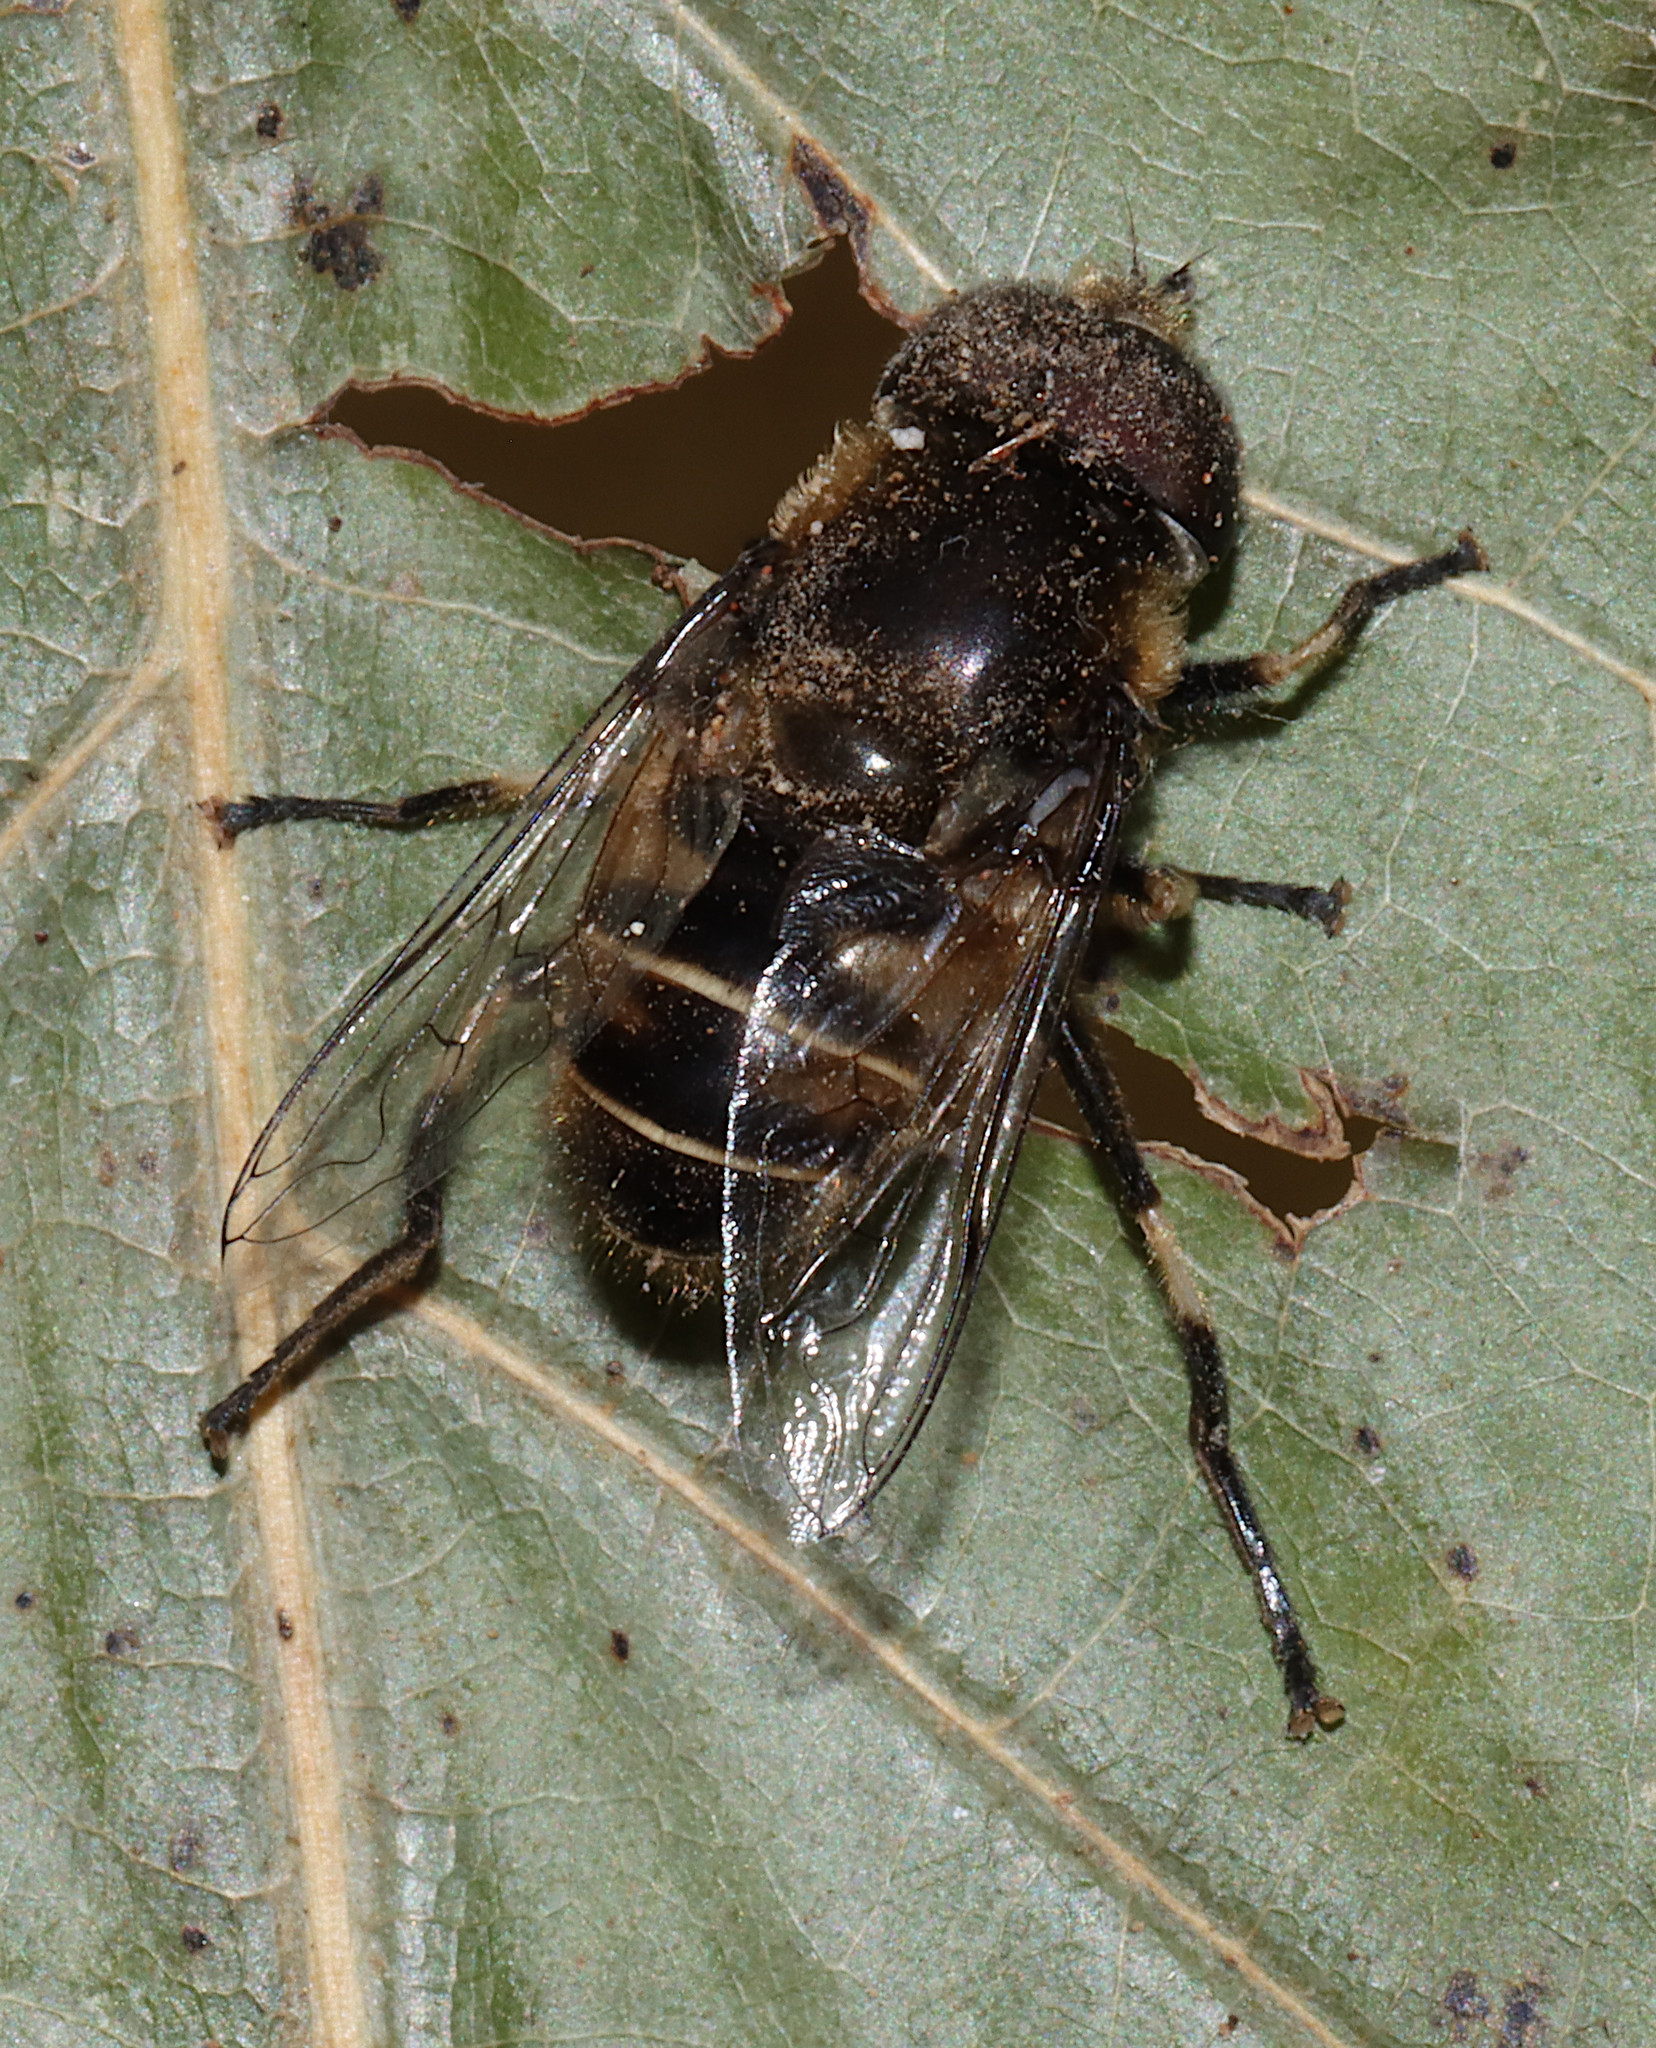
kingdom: Animalia
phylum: Arthropoda
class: Insecta
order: Diptera
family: Syrphidae
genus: Eristalis
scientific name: Eristalis dimidiata
